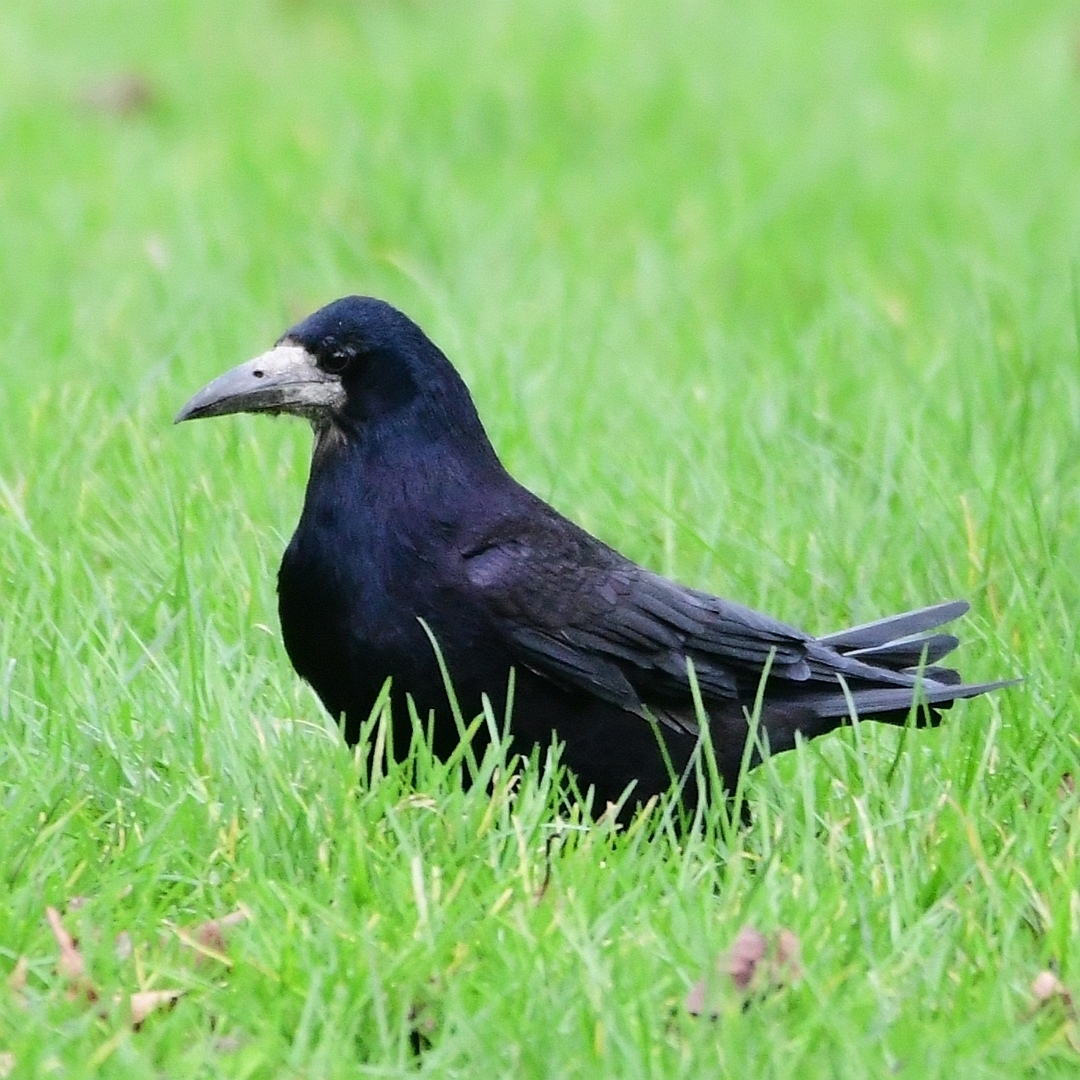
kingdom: Animalia
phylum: Chordata
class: Aves
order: Passeriformes
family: Corvidae
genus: Corvus
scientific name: Corvus frugilegus
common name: Rook
